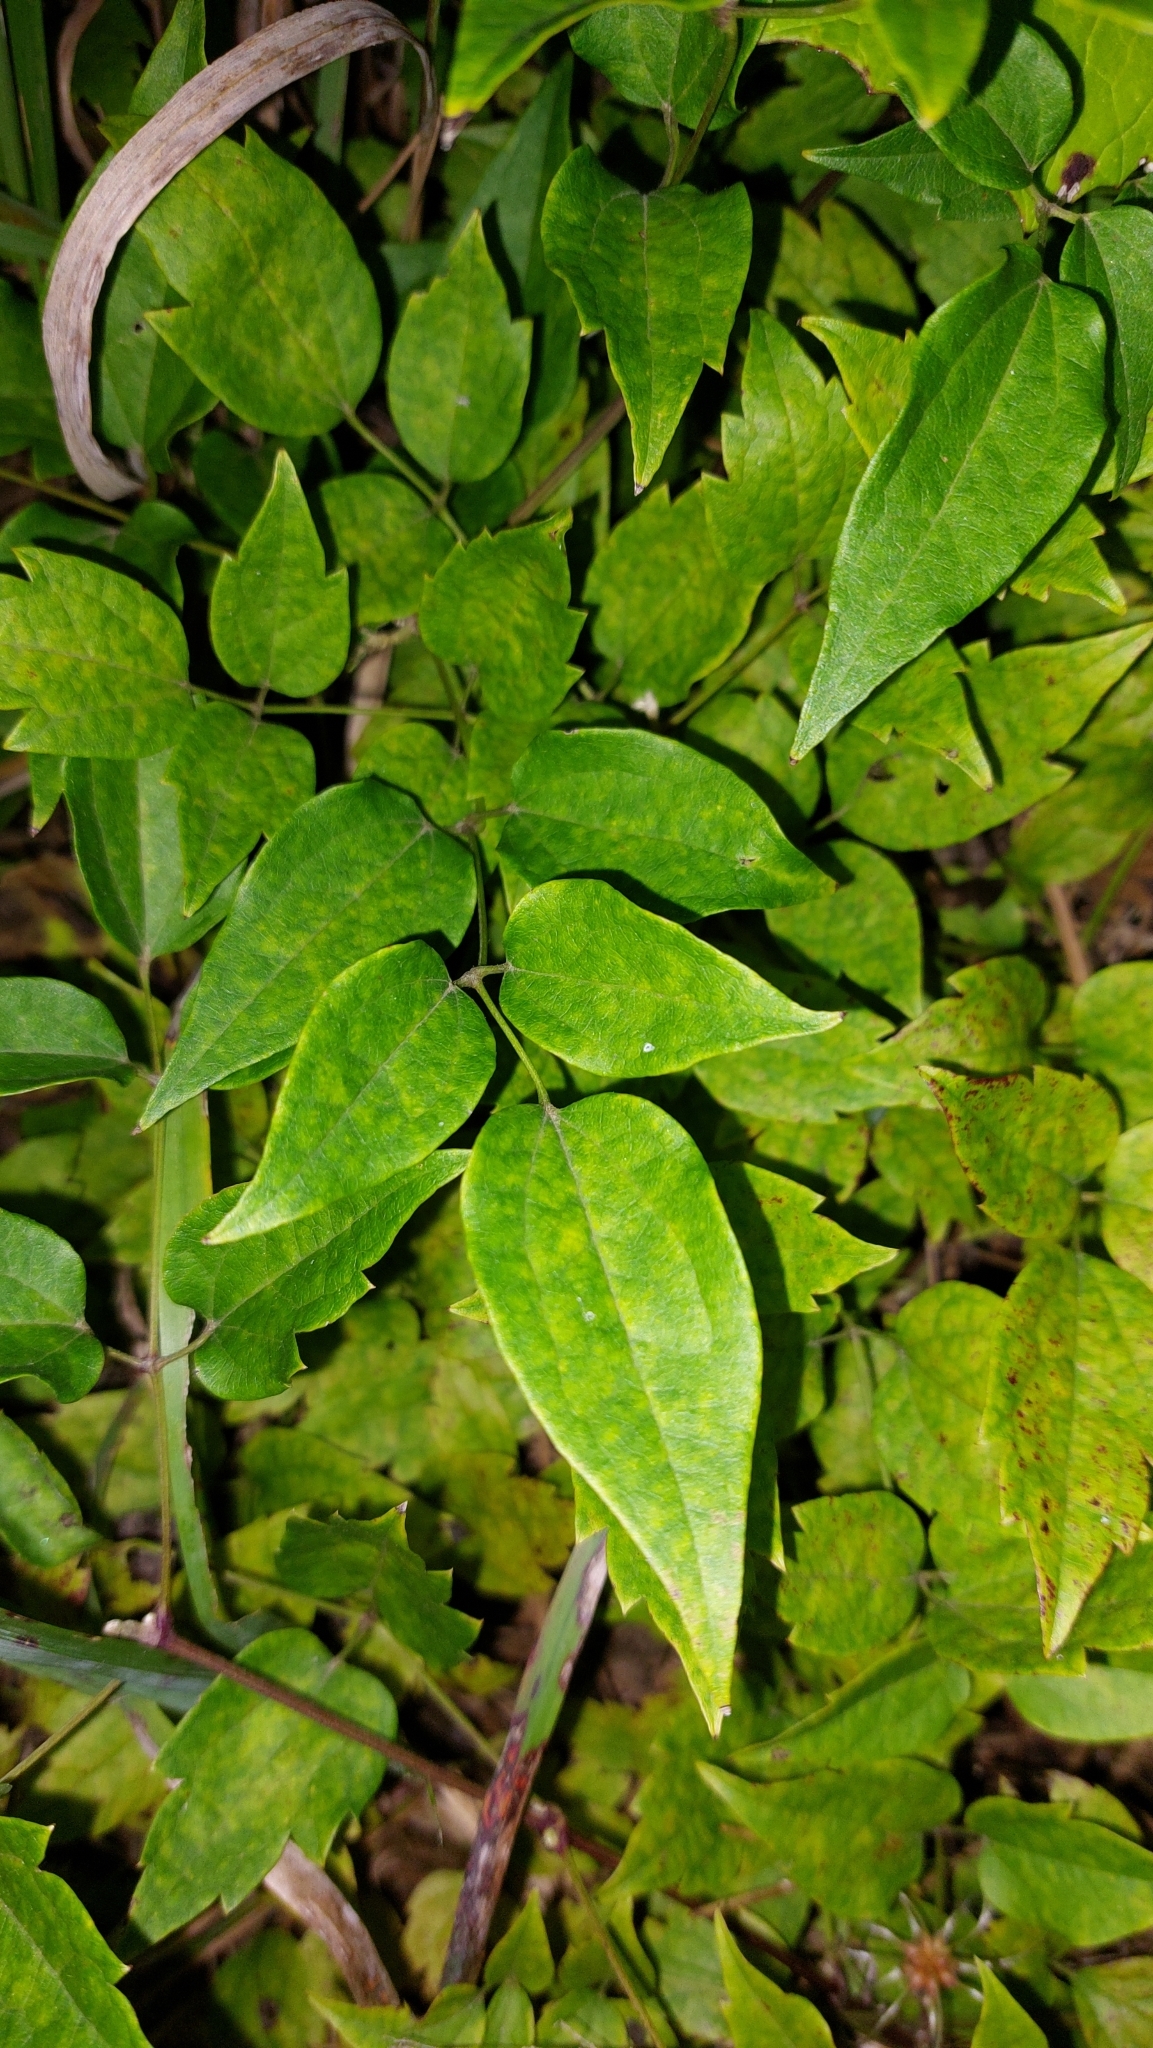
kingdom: Plantae
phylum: Tracheophyta
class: Magnoliopsida
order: Ranunculales
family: Ranunculaceae
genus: Clematis
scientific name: Clematis vitalba
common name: Evergreen clematis
